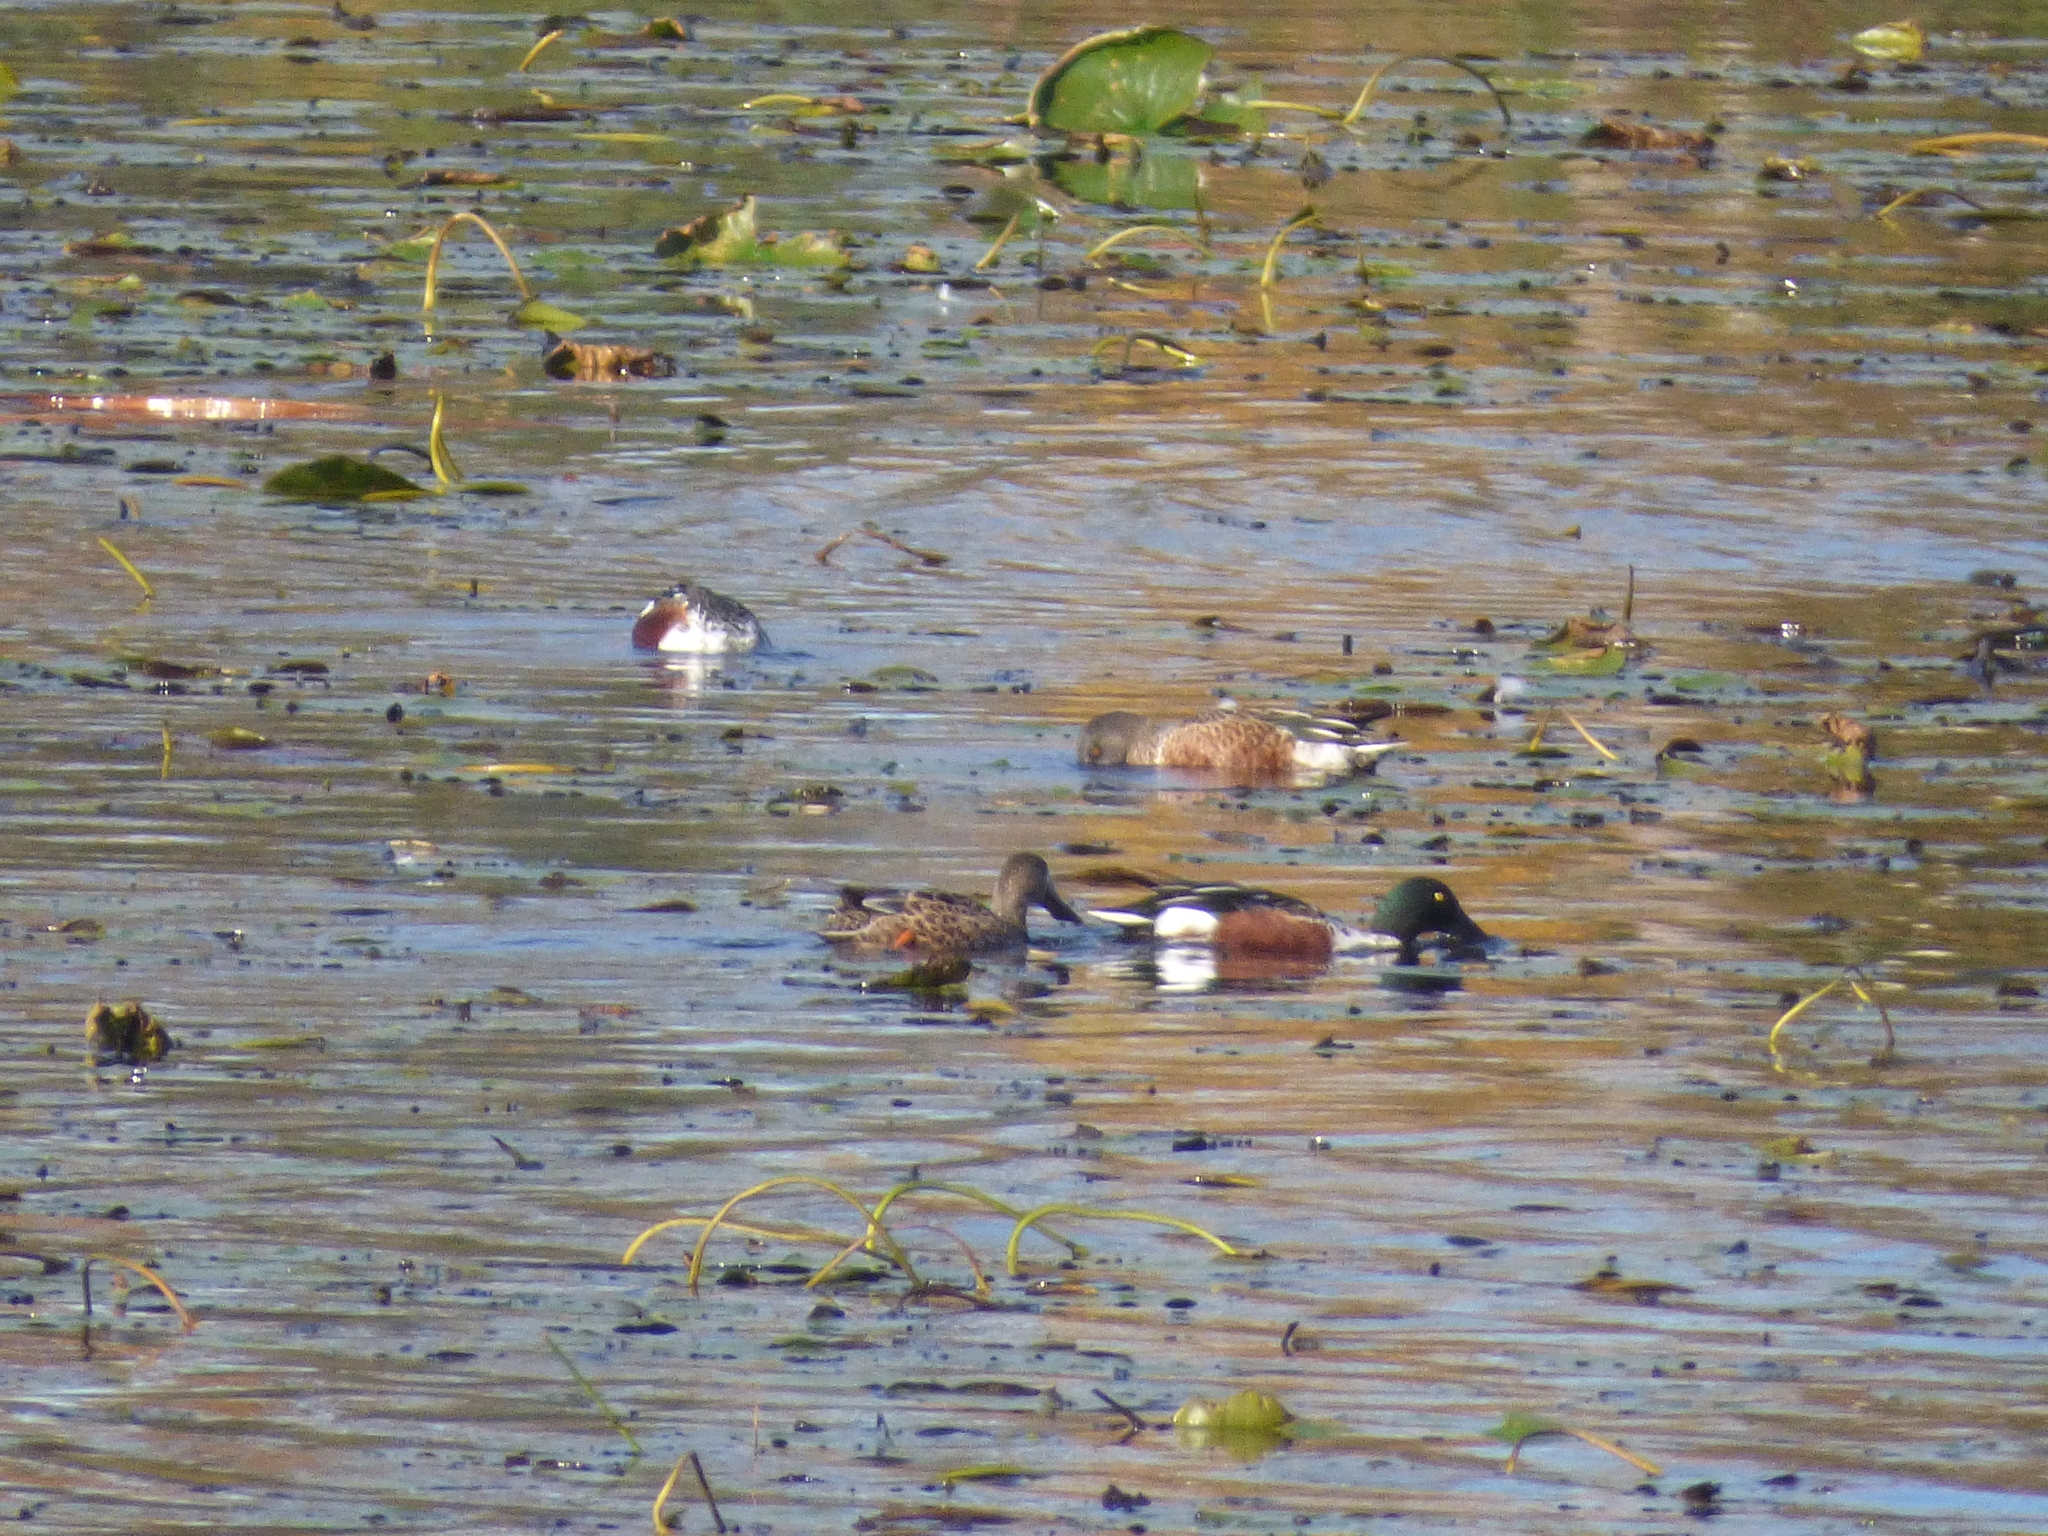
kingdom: Animalia
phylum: Chordata
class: Aves
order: Anseriformes
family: Anatidae
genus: Spatula
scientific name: Spatula clypeata
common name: Northern shoveler
